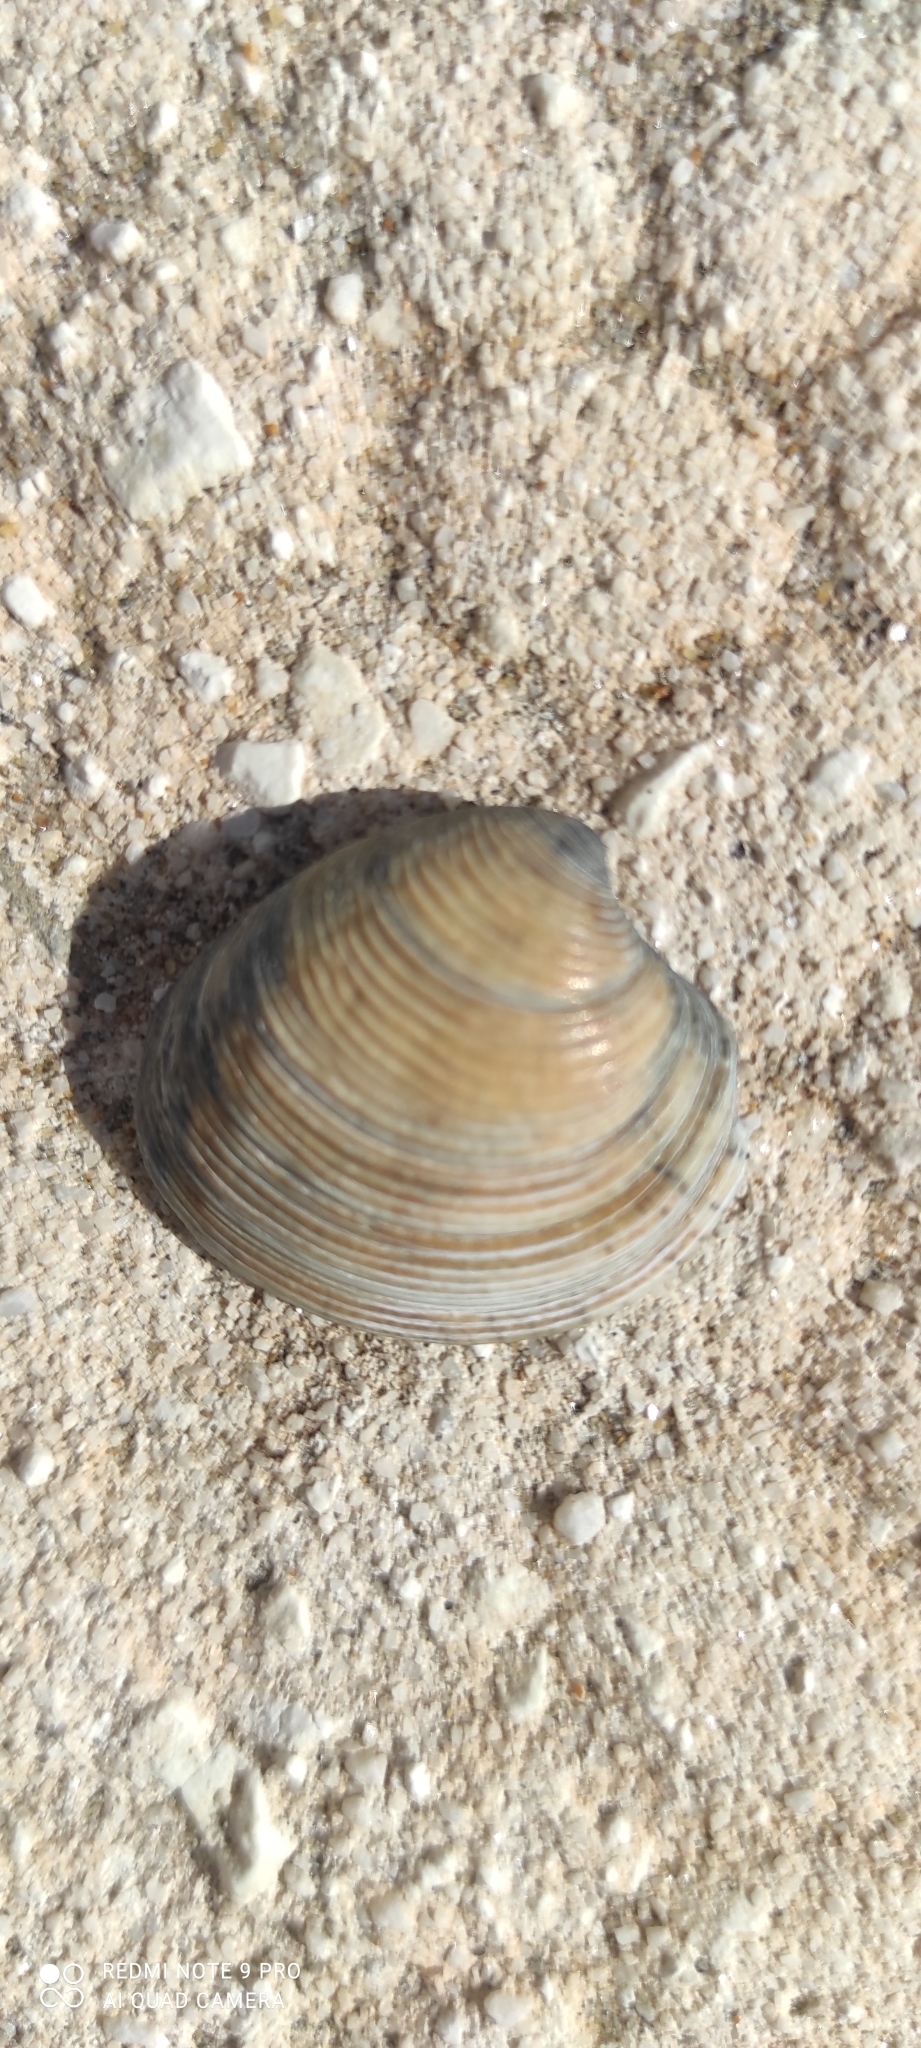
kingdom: Animalia
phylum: Mollusca
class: Bivalvia
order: Venerida
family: Veneridae
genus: Chamelea
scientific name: Chamelea gallina
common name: Chicken venus
